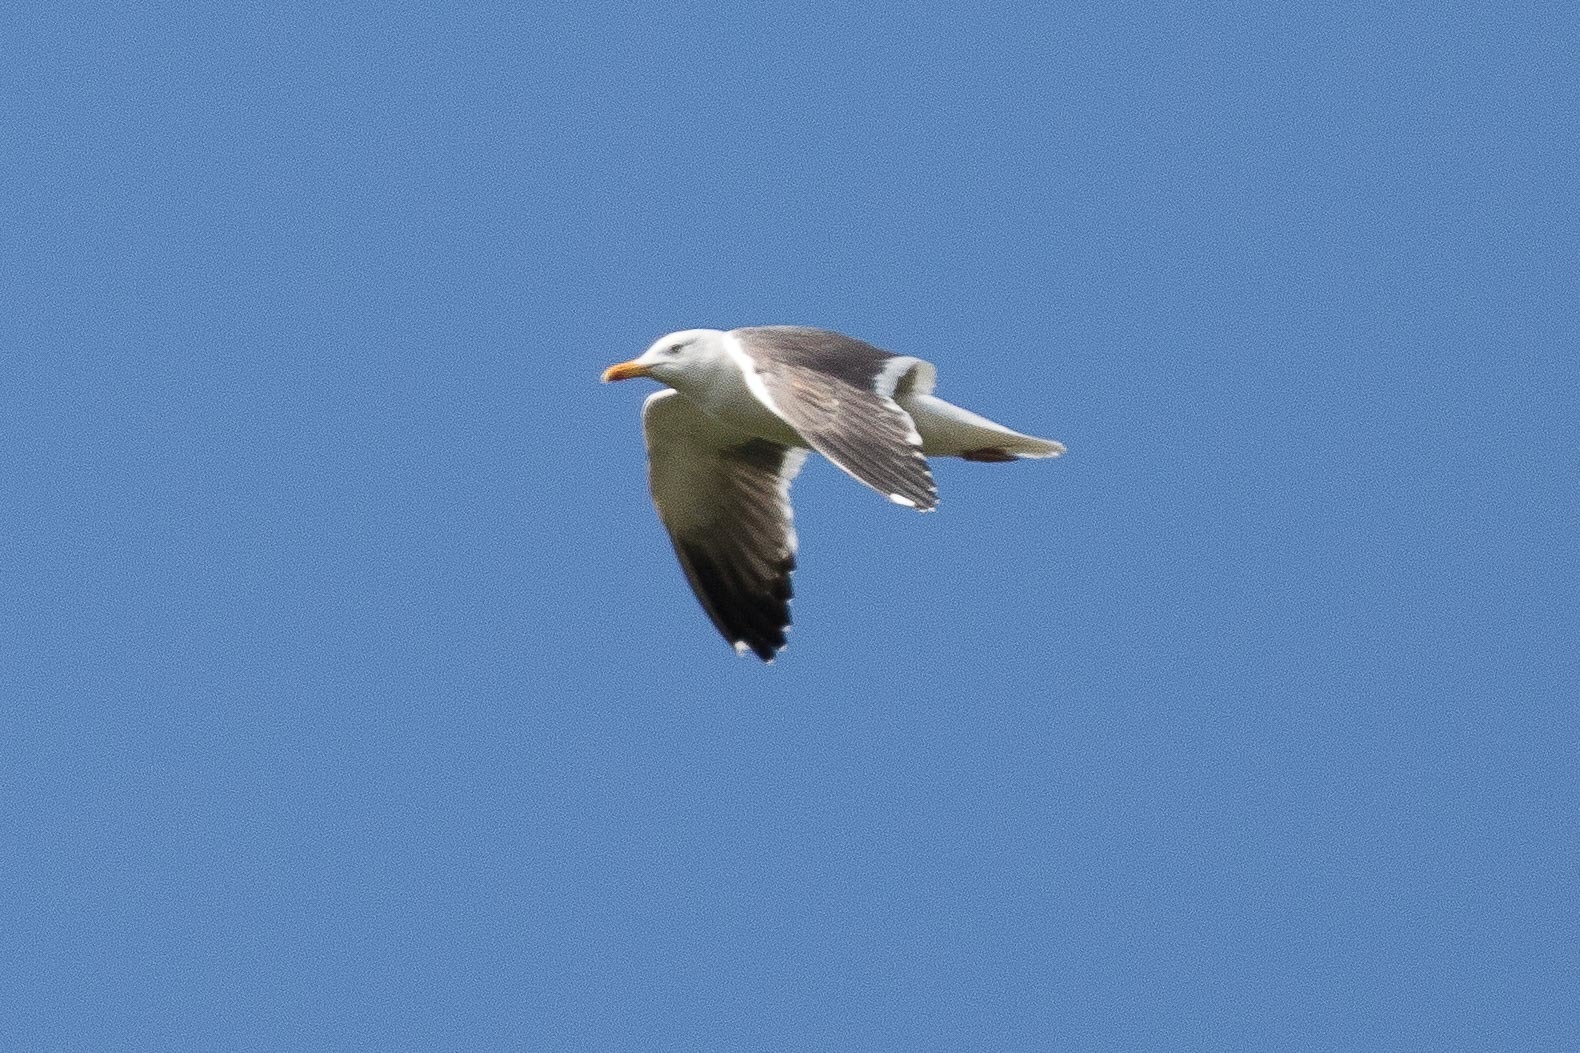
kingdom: Animalia
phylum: Chordata
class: Aves
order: Charadriiformes
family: Laridae
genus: Larus
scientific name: Larus fuscus
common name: Lesser black-backed gull
